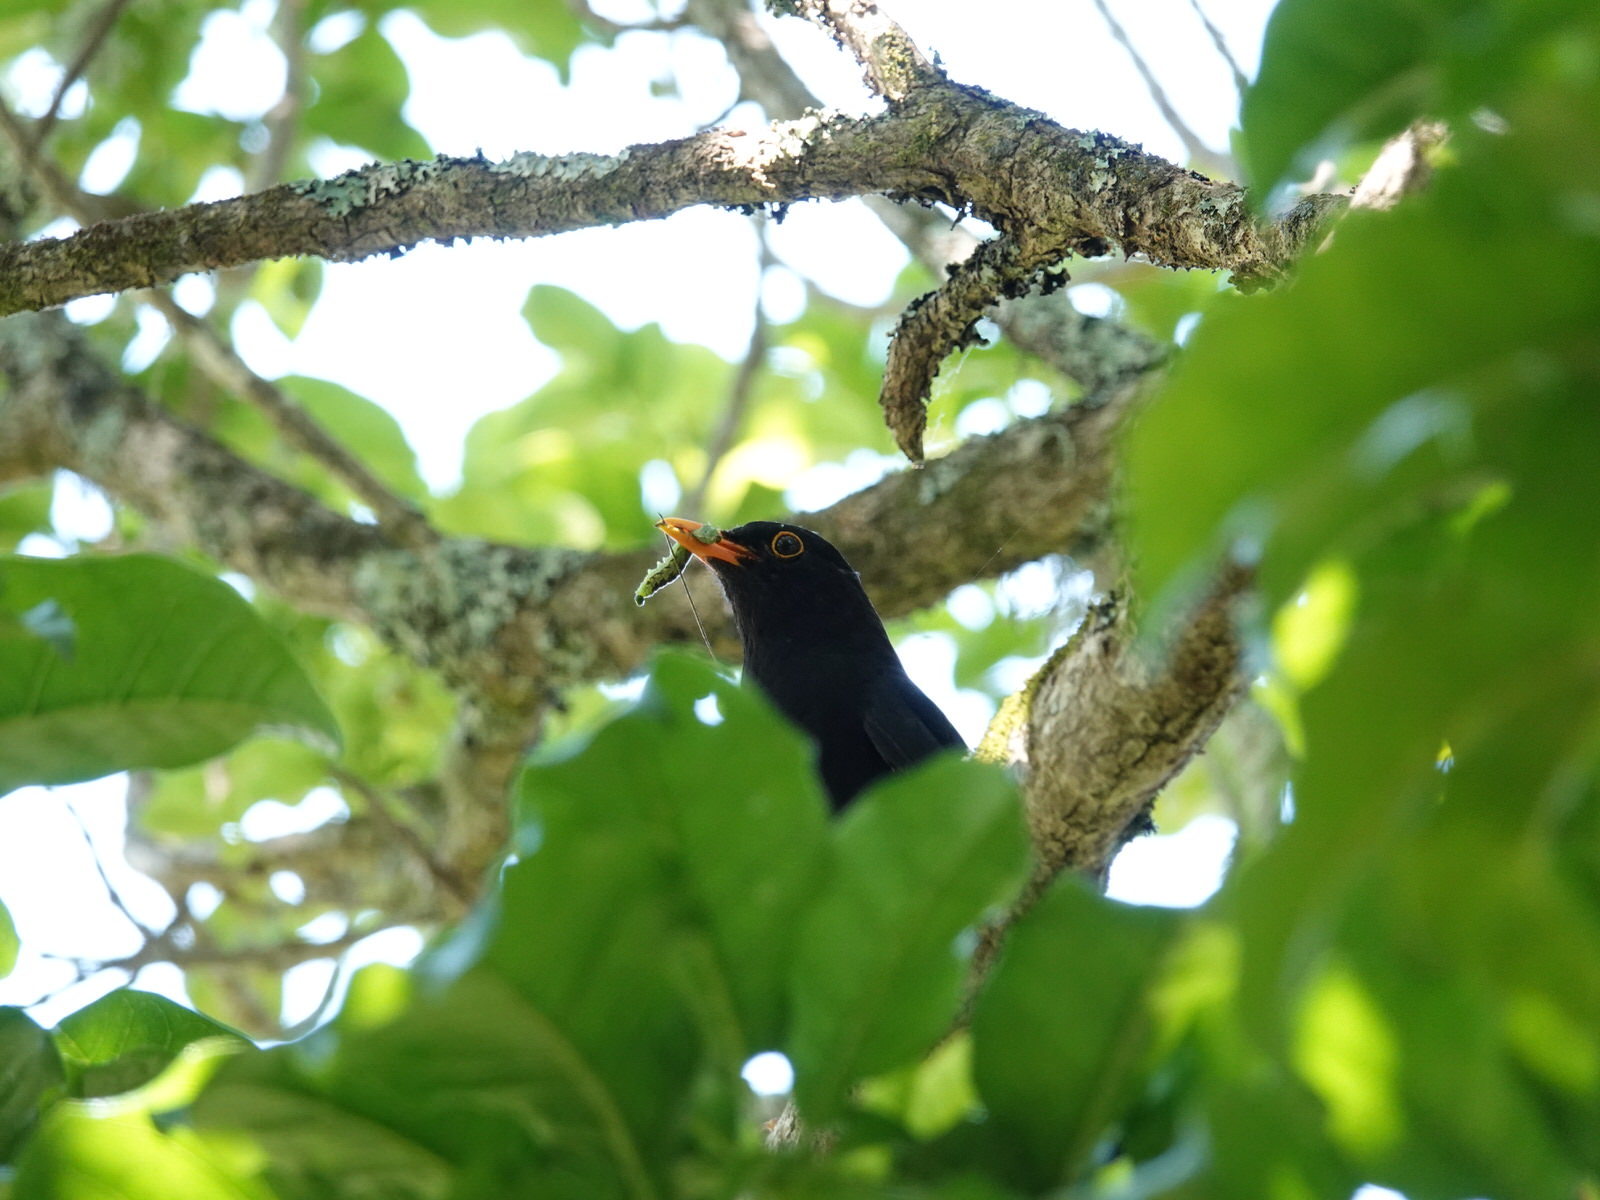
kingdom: Animalia
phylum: Chordata
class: Aves
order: Passeriformes
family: Turdidae
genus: Turdus
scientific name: Turdus merula
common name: Common blackbird
